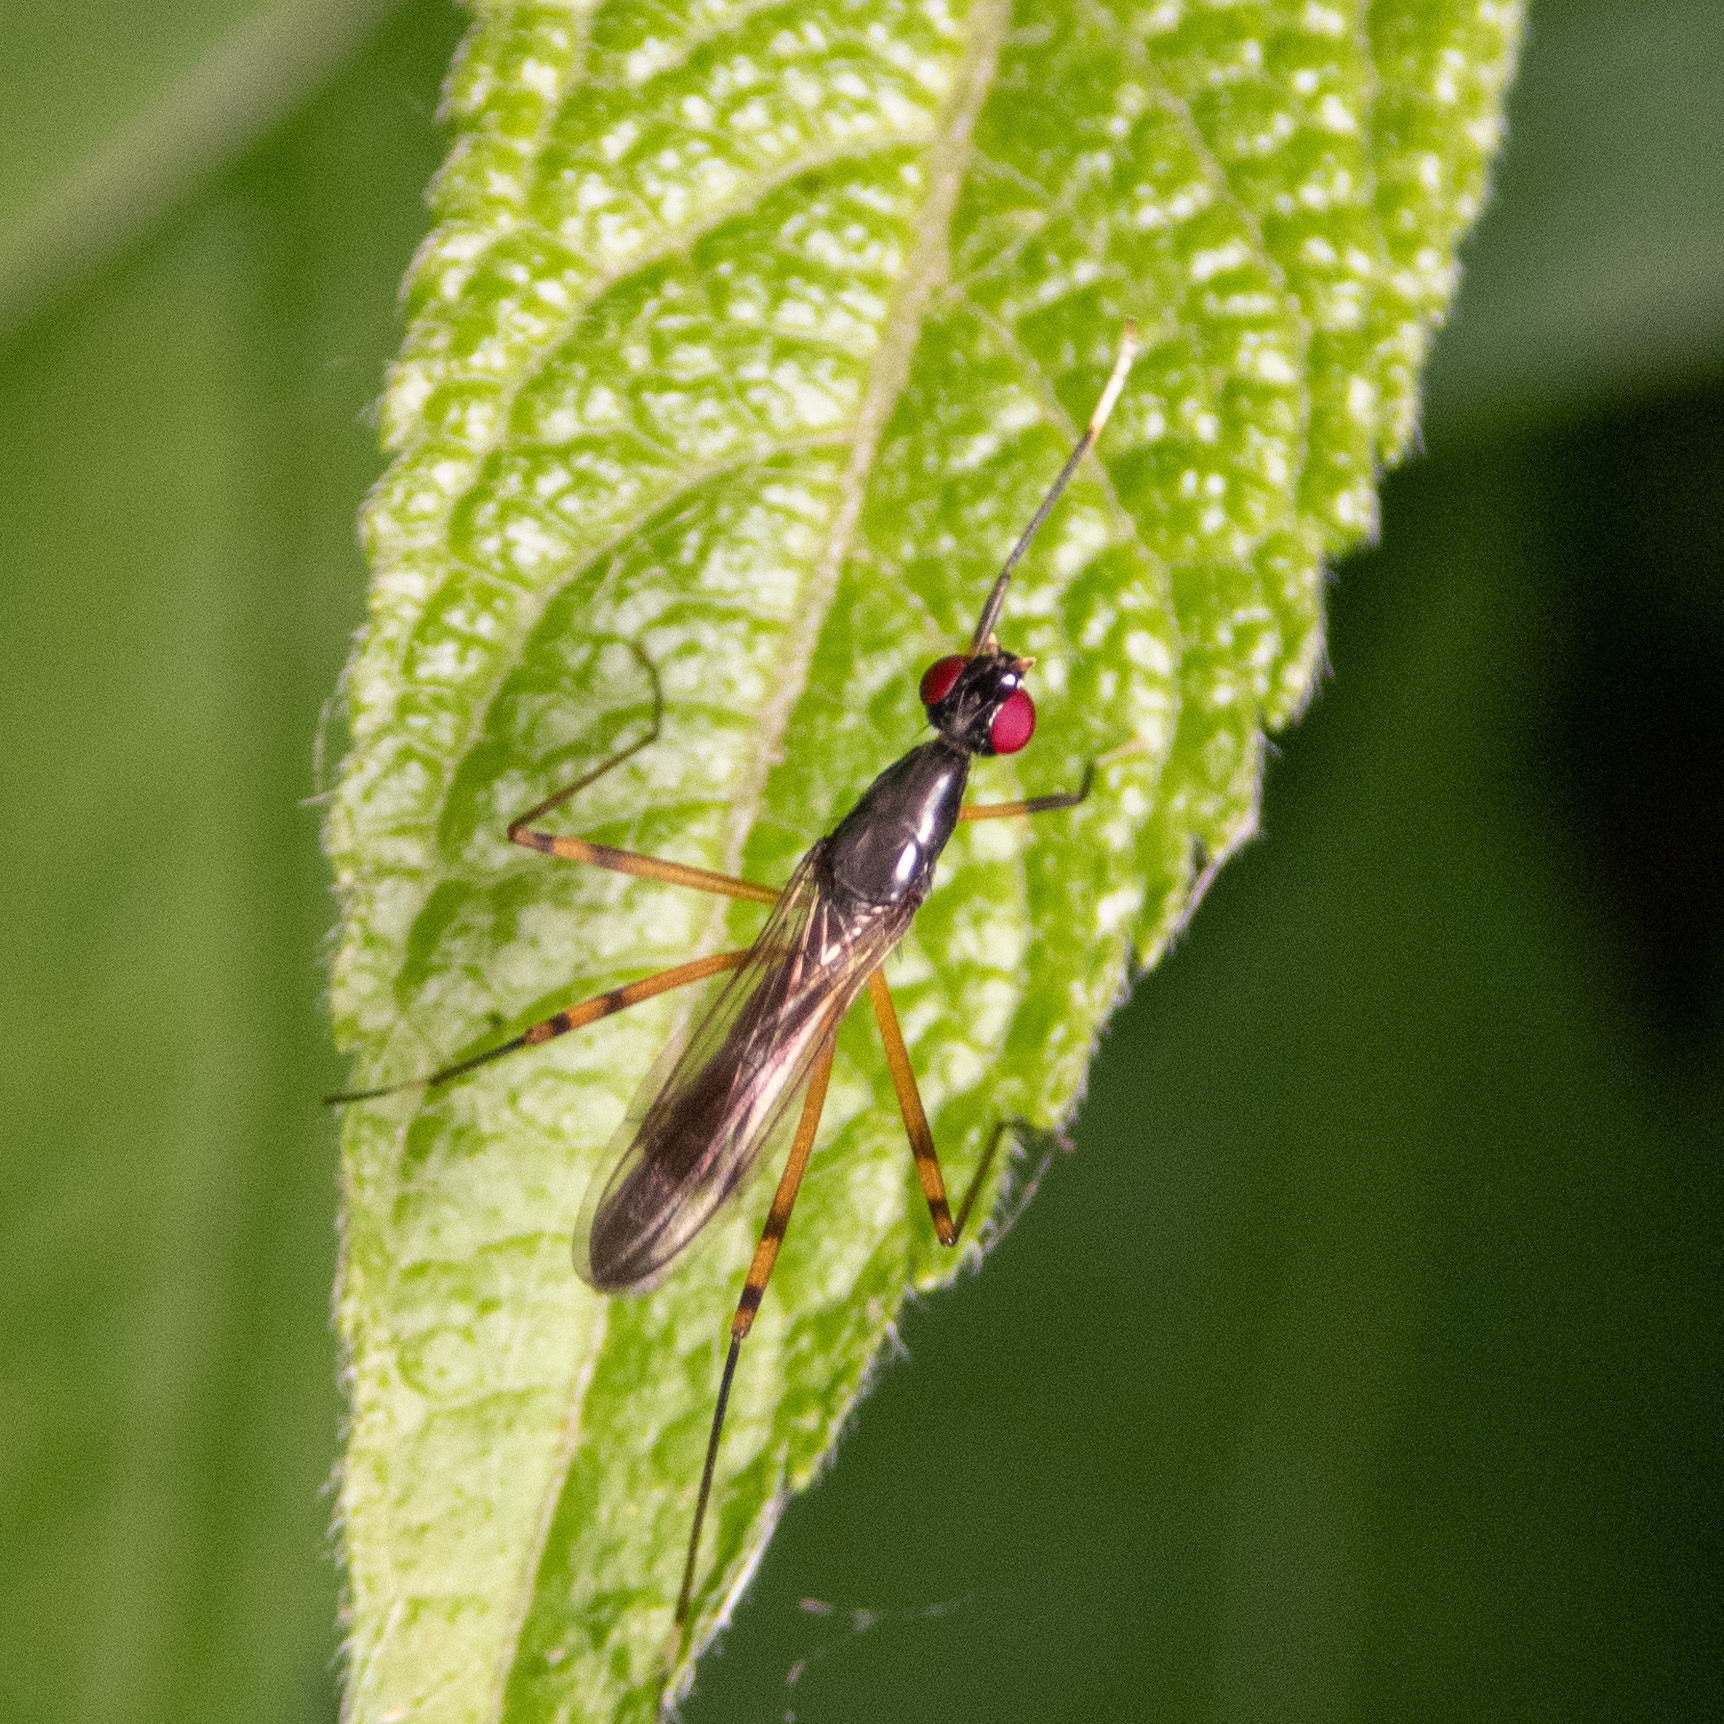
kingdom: Animalia
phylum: Arthropoda
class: Insecta
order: Diptera
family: Micropezidae
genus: Rainieria
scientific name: Rainieria antennaepes
